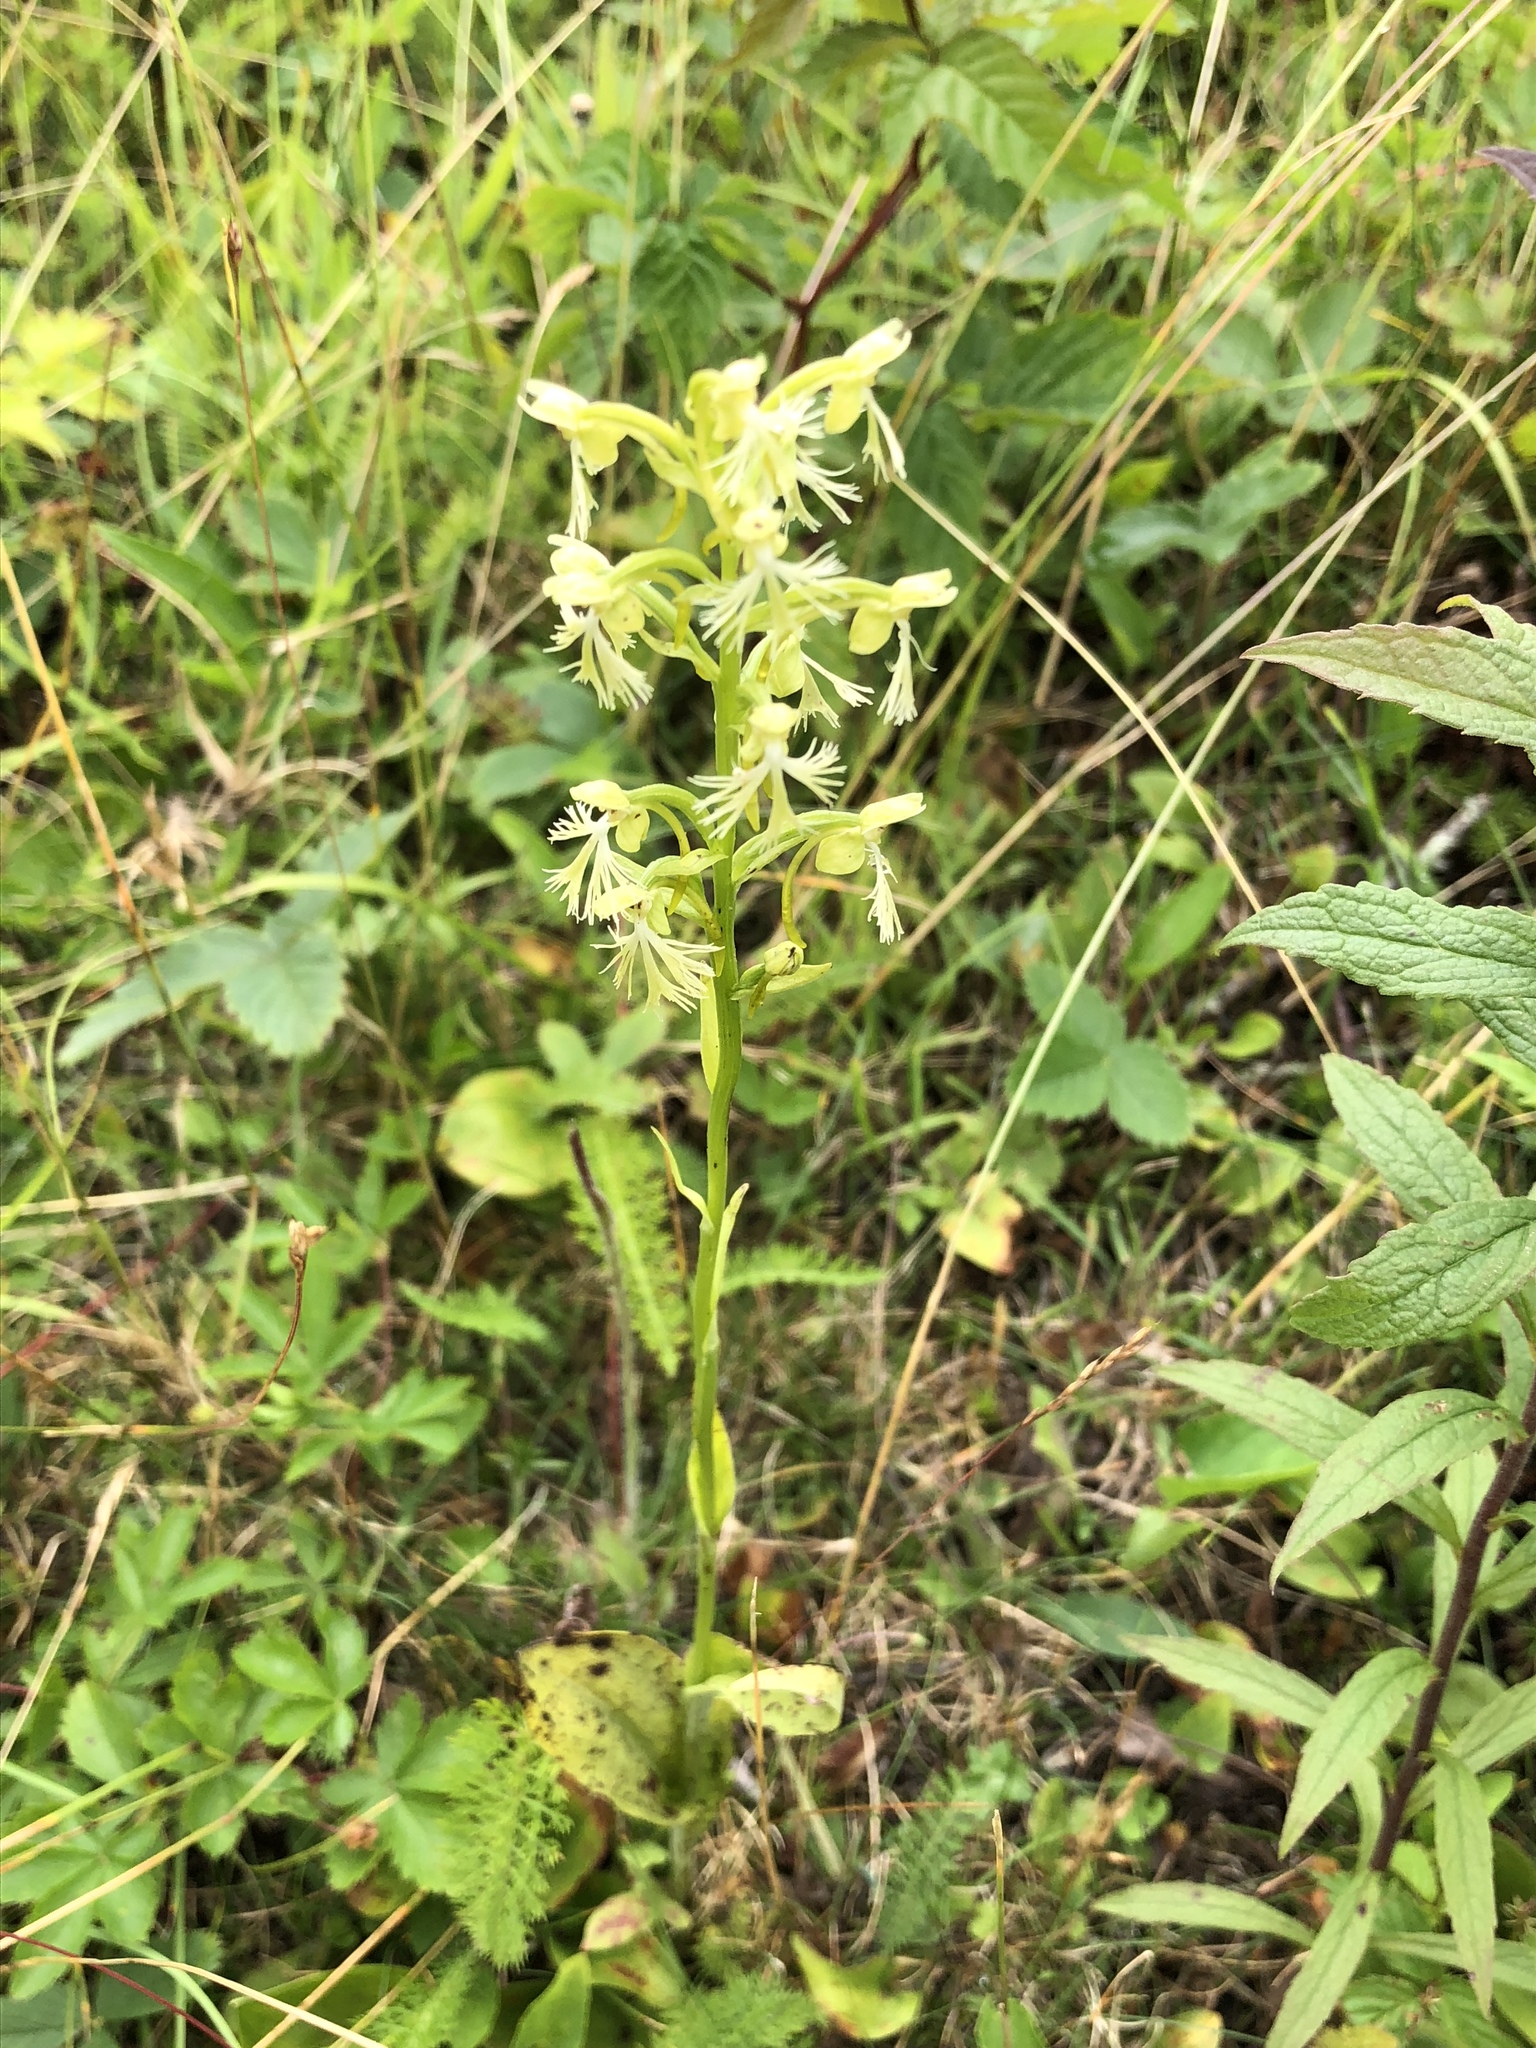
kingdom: Plantae
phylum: Tracheophyta
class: Liliopsida
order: Asparagales
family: Orchidaceae
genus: Platanthera
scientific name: Platanthera lacera
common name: Green fringed orchid
